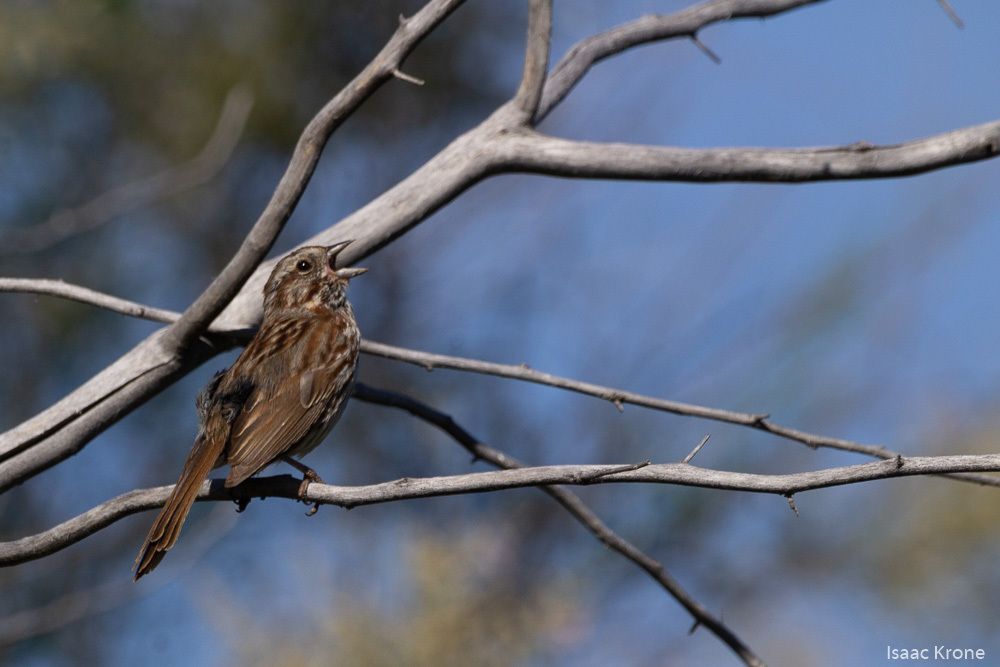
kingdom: Animalia
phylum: Chordata
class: Aves
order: Passeriformes
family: Passerellidae
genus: Melospiza
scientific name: Melospiza melodia
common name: Song sparrow
